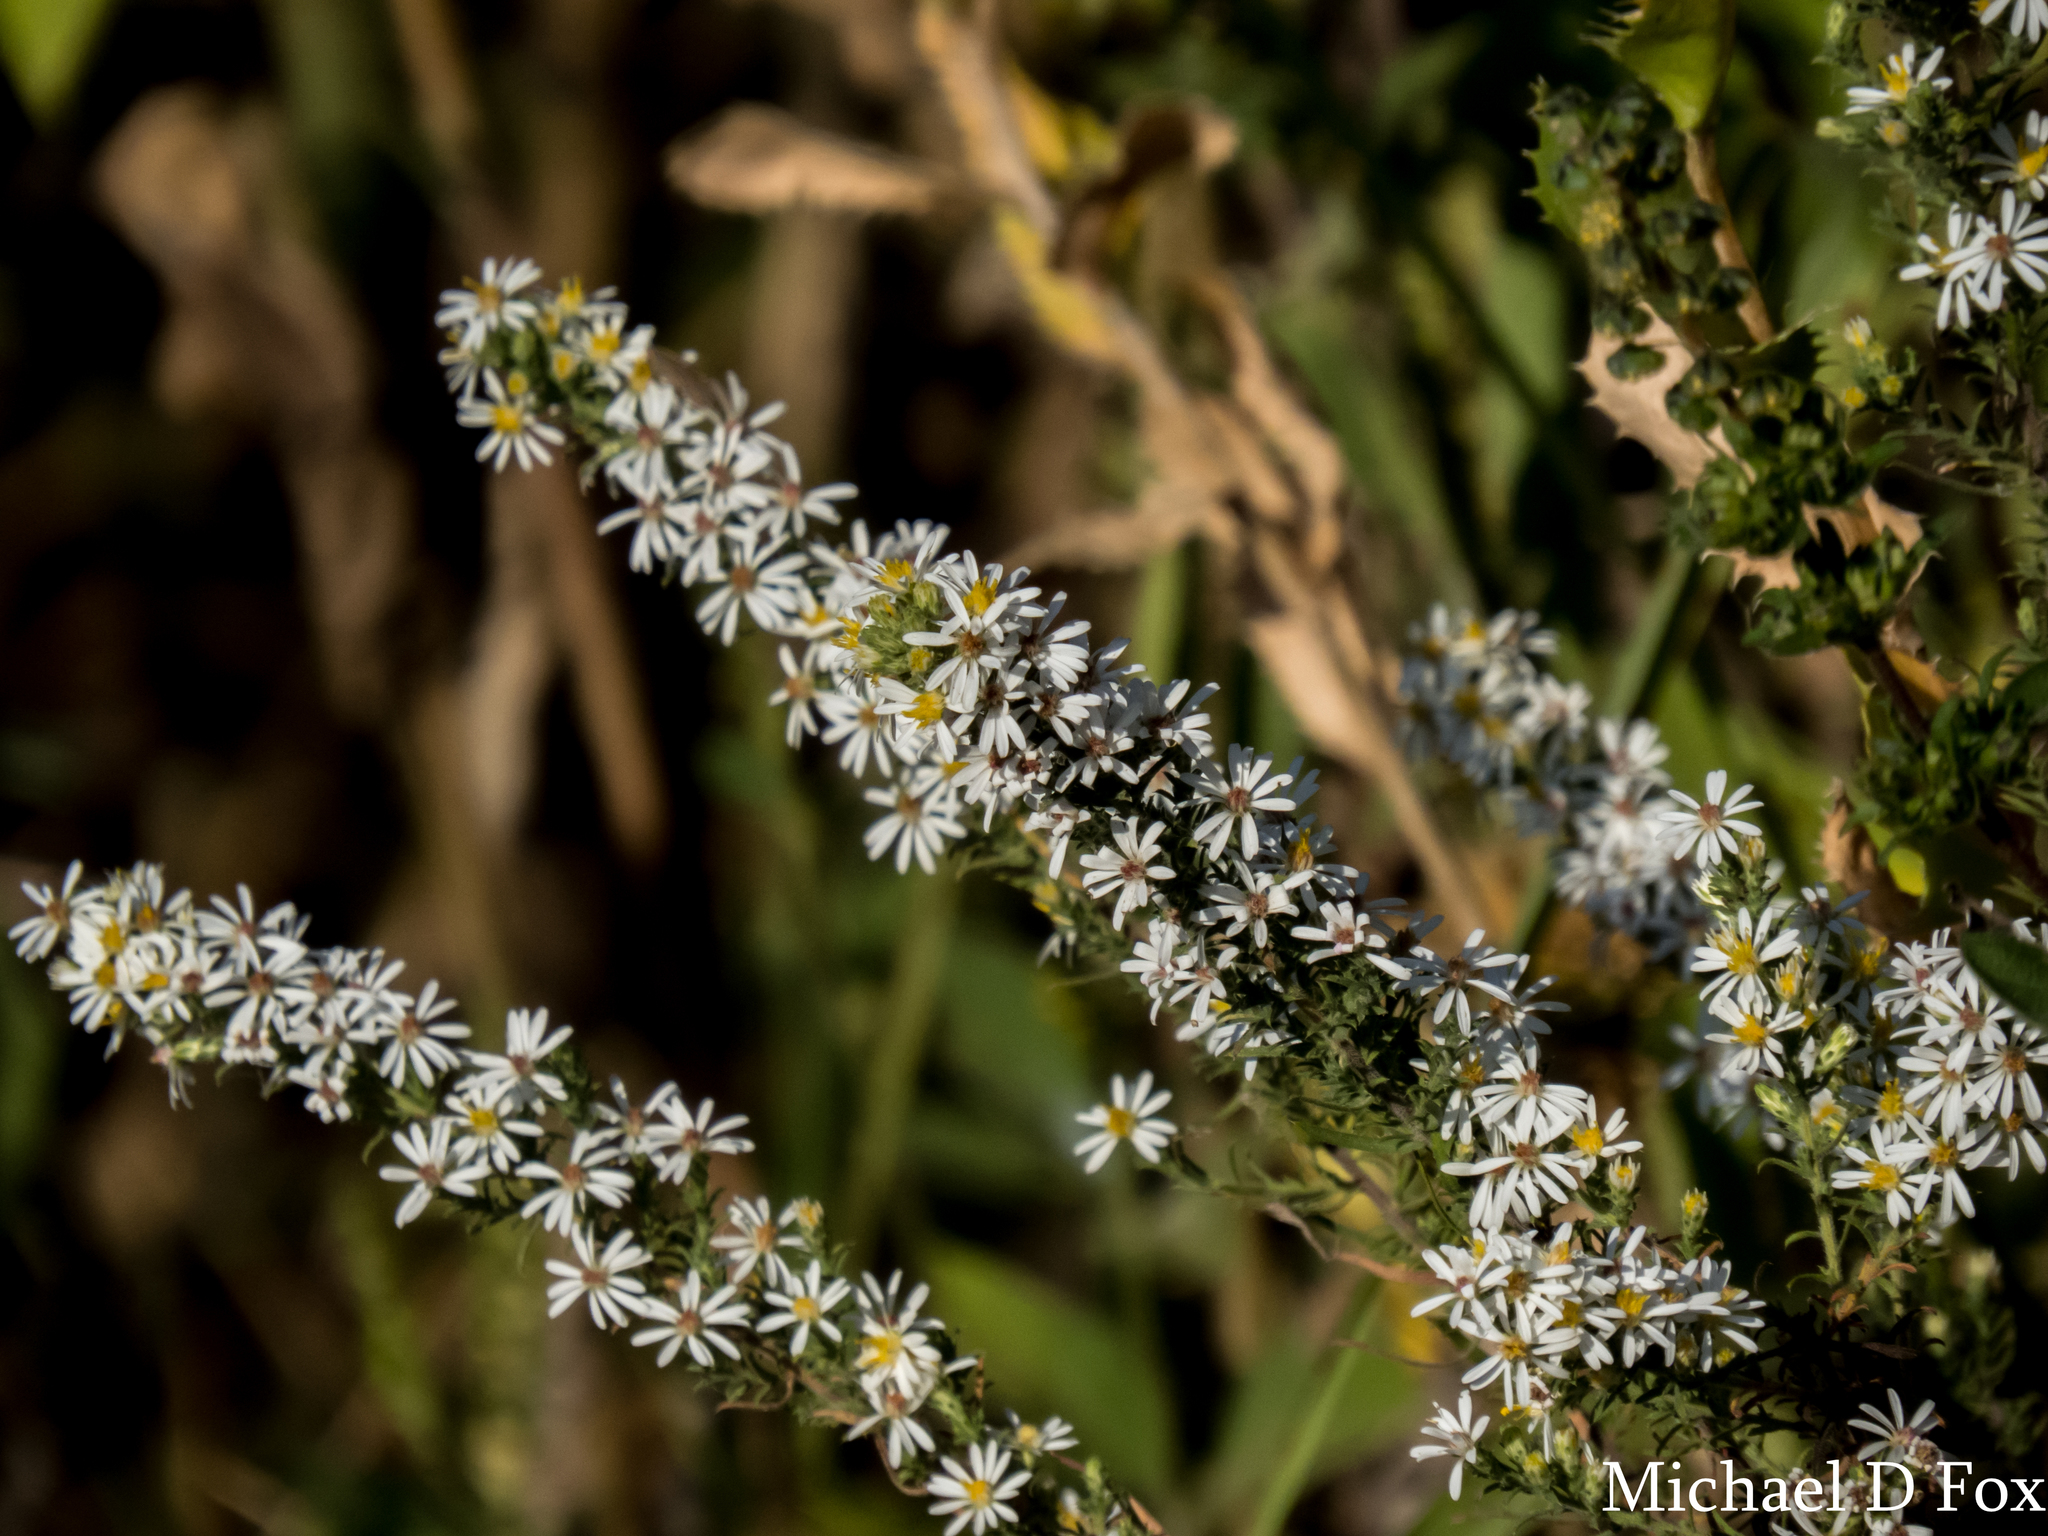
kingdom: Plantae
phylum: Tracheophyta
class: Magnoliopsida
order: Asterales
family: Asteraceae
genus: Symphyotrichum
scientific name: Symphyotrichum ericoides
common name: Heath aster
